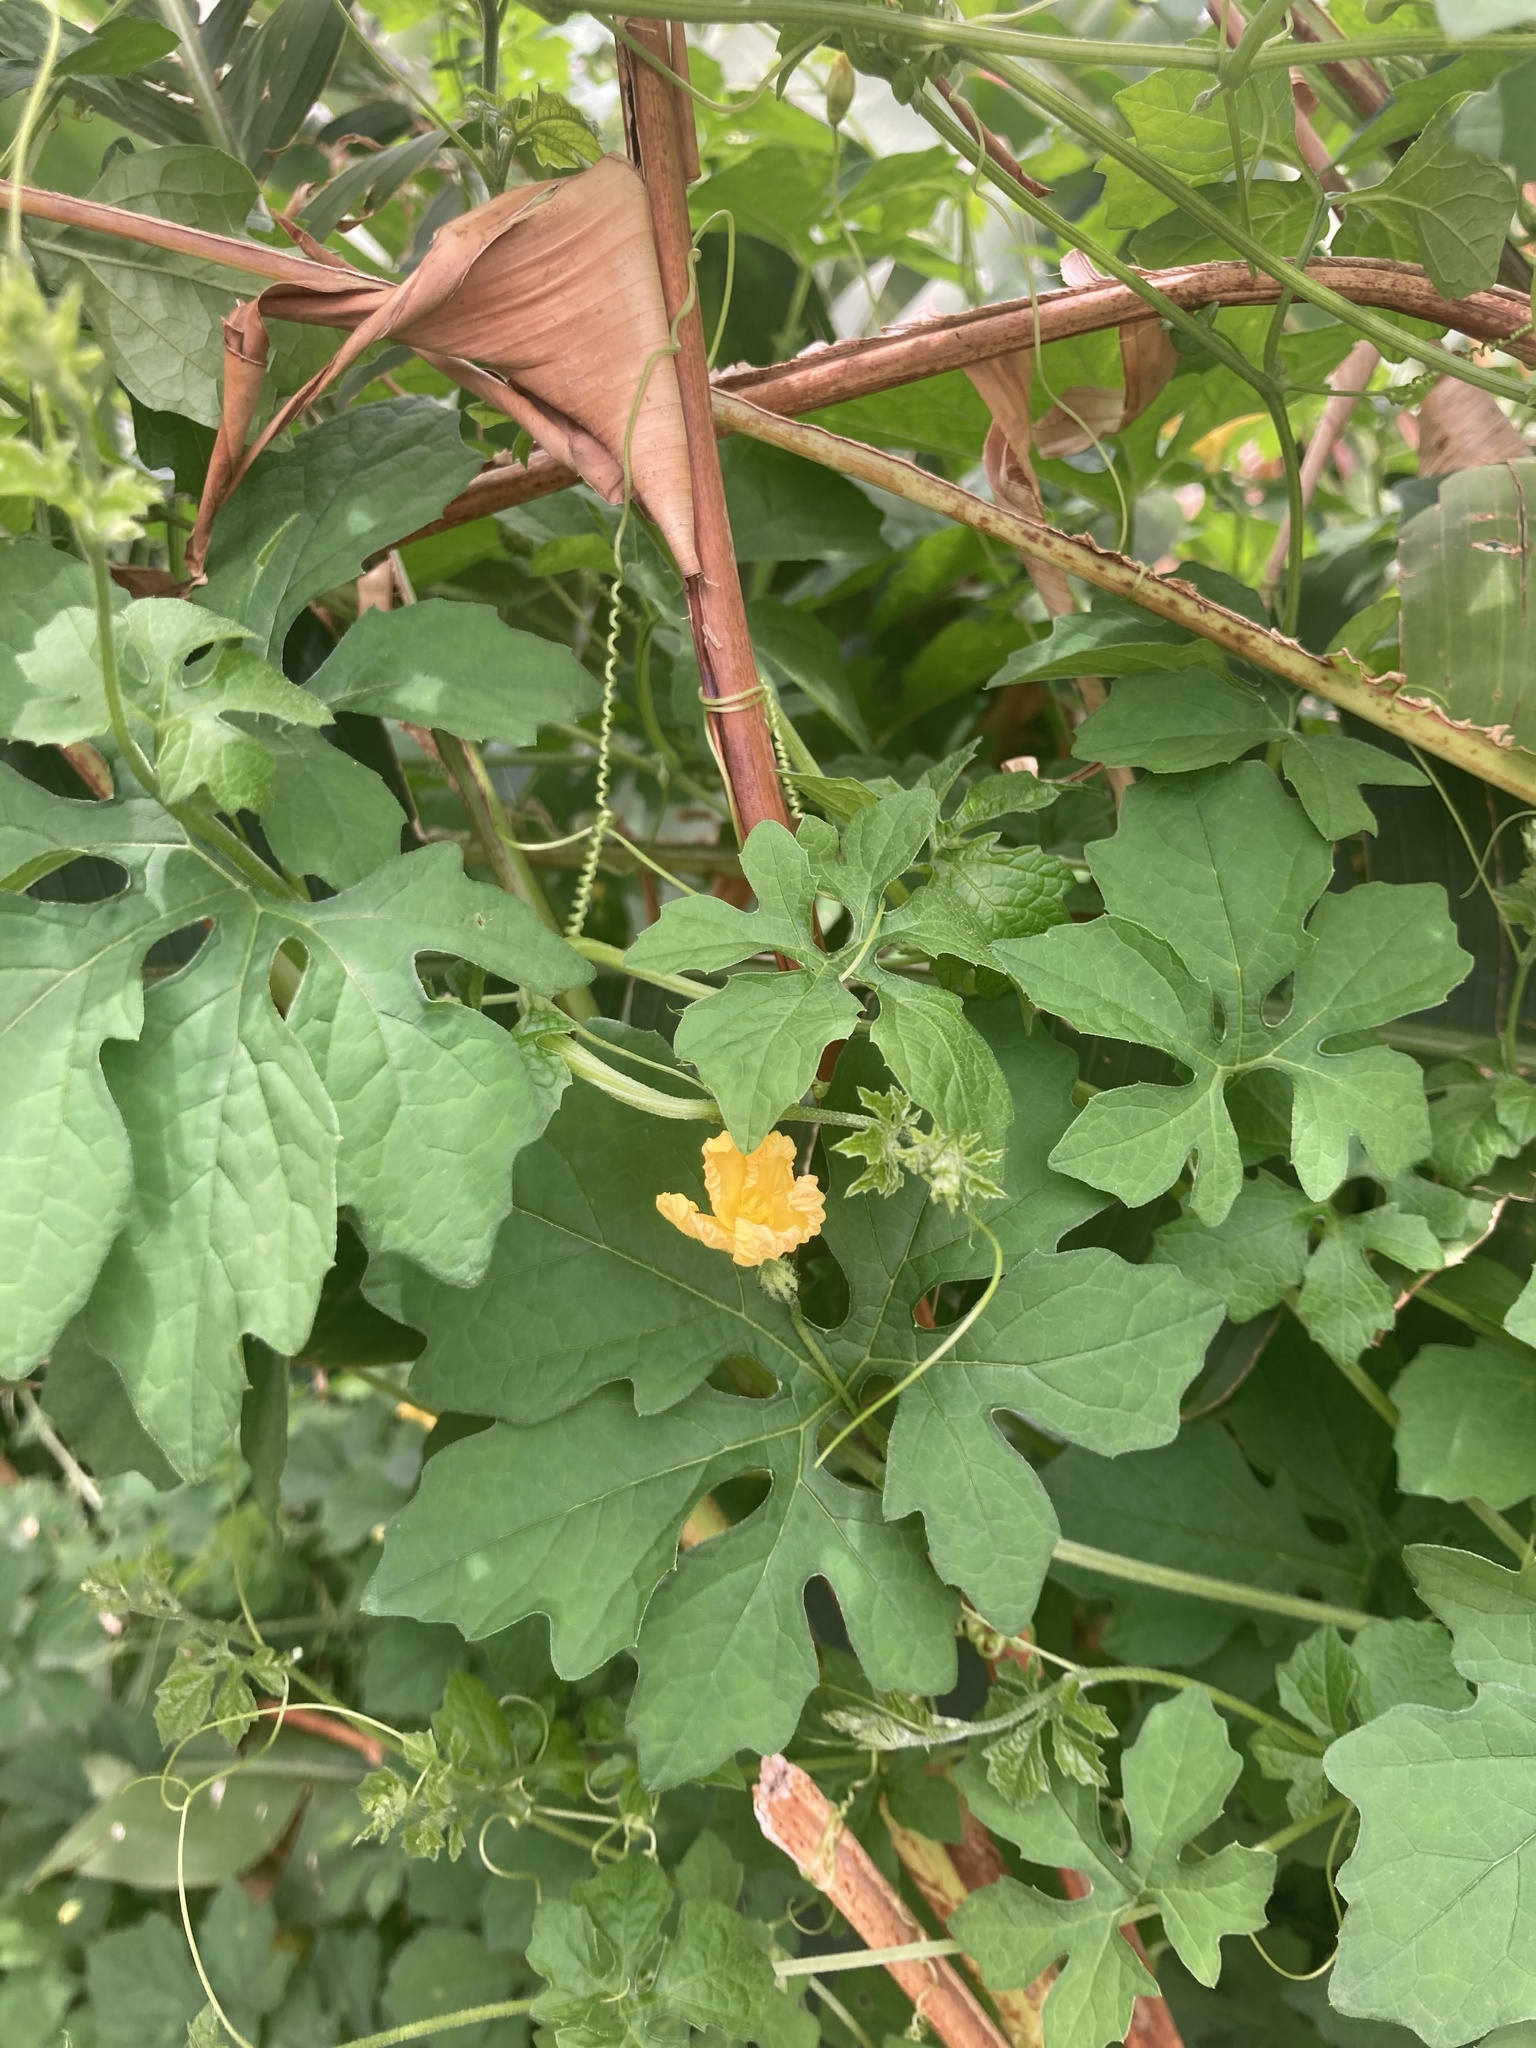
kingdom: Plantae
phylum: Tracheophyta
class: Magnoliopsida
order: Cucurbitales
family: Cucurbitaceae
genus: Momordica
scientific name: Momordica charantia
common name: Balsampear
